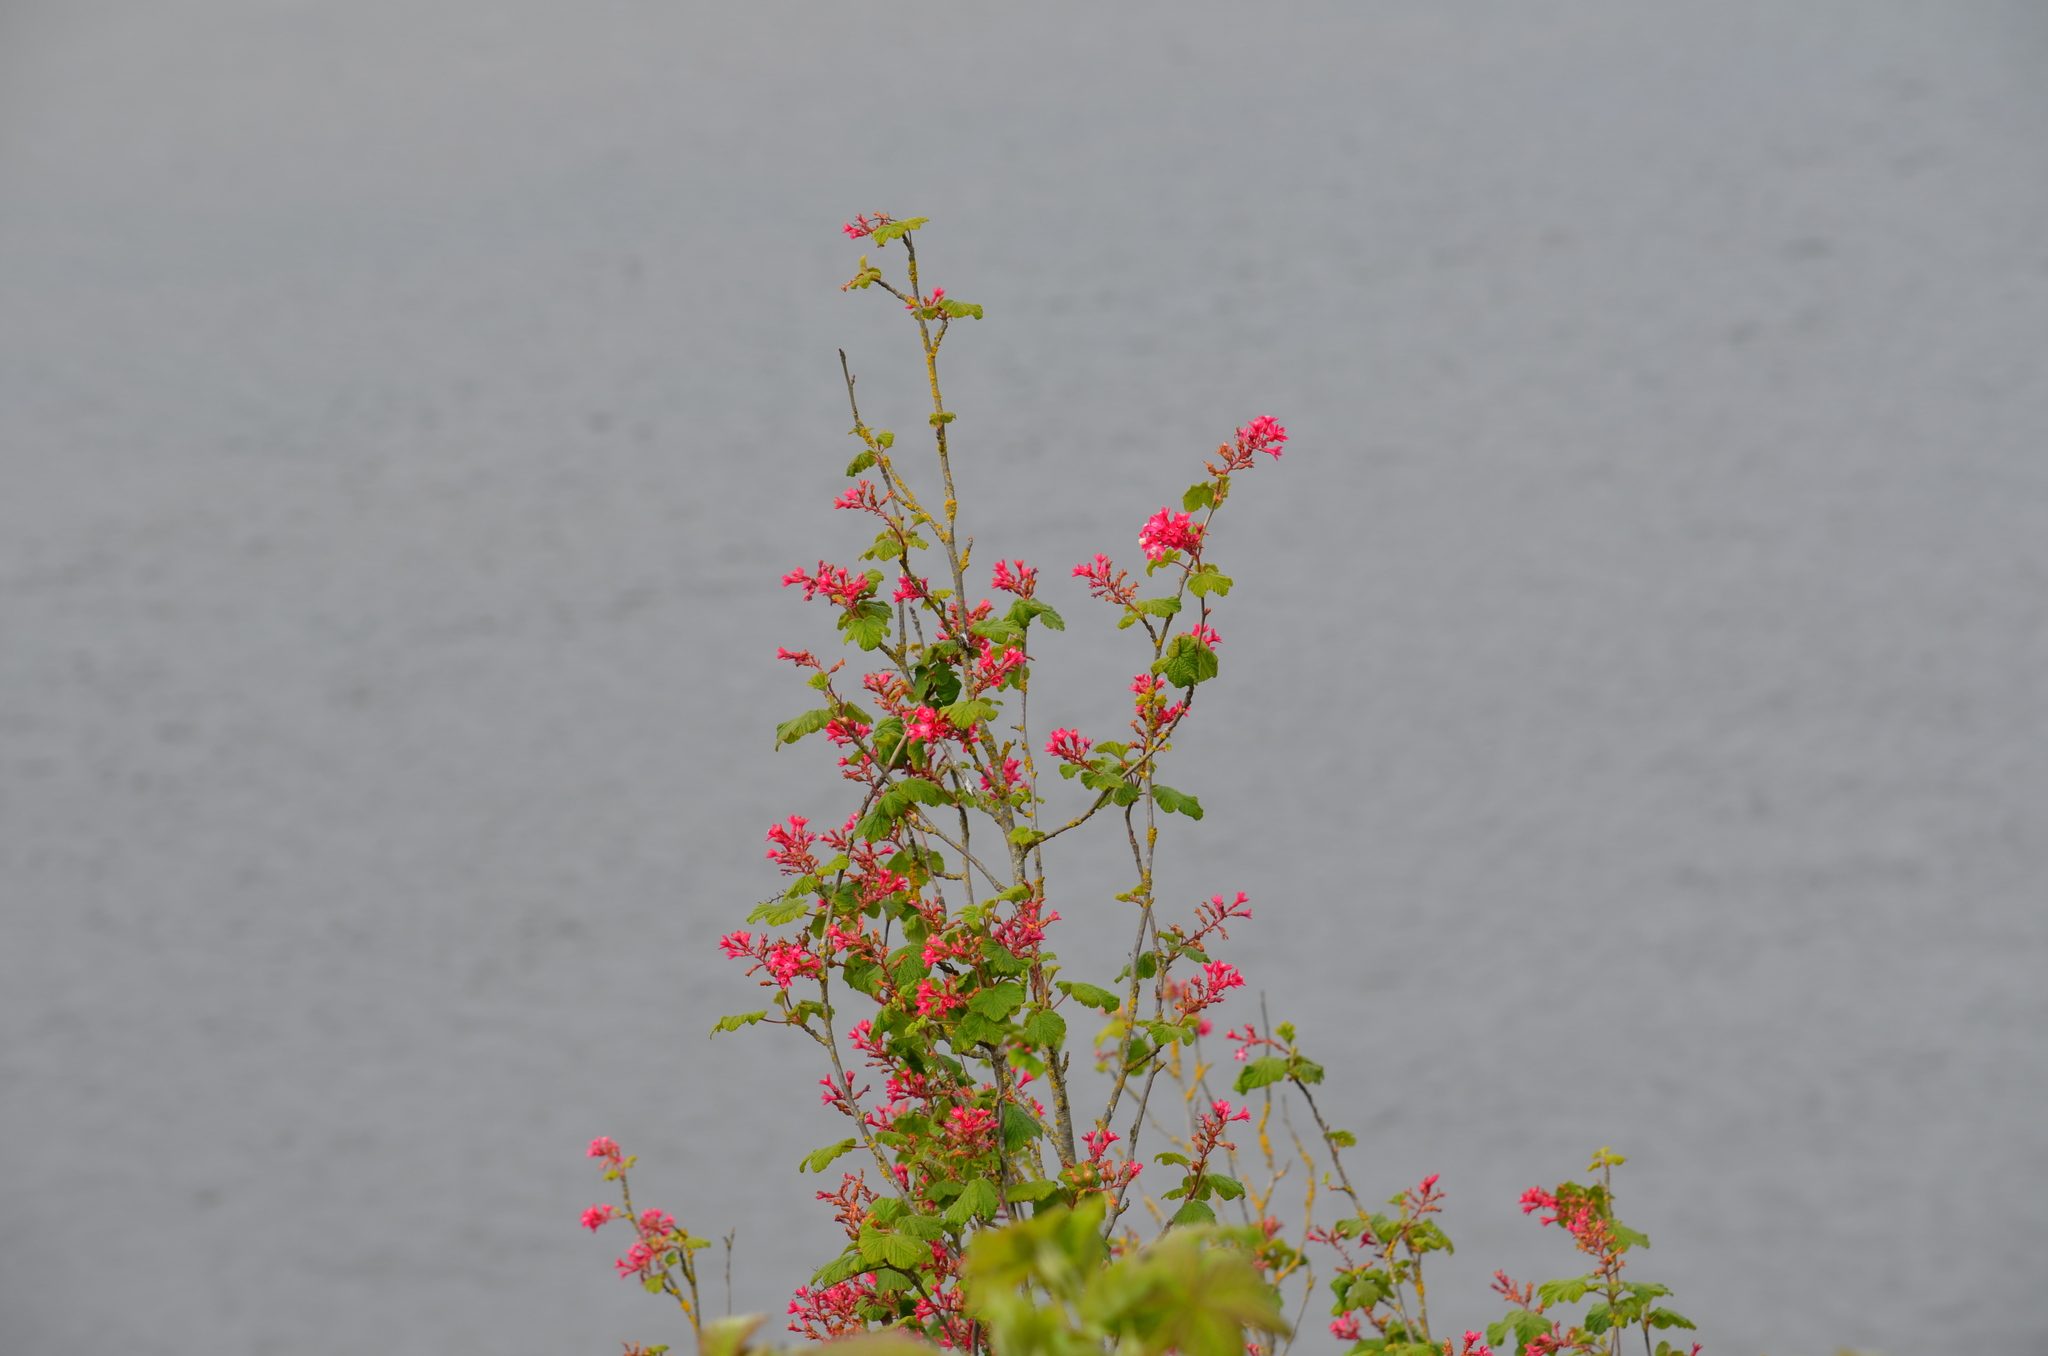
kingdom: Plantae
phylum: Tracheophyta
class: Magnoliopsida
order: Saxifragales
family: Grossulariaceae
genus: Ribes
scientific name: Ribes sanguineum
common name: Flowering currant
